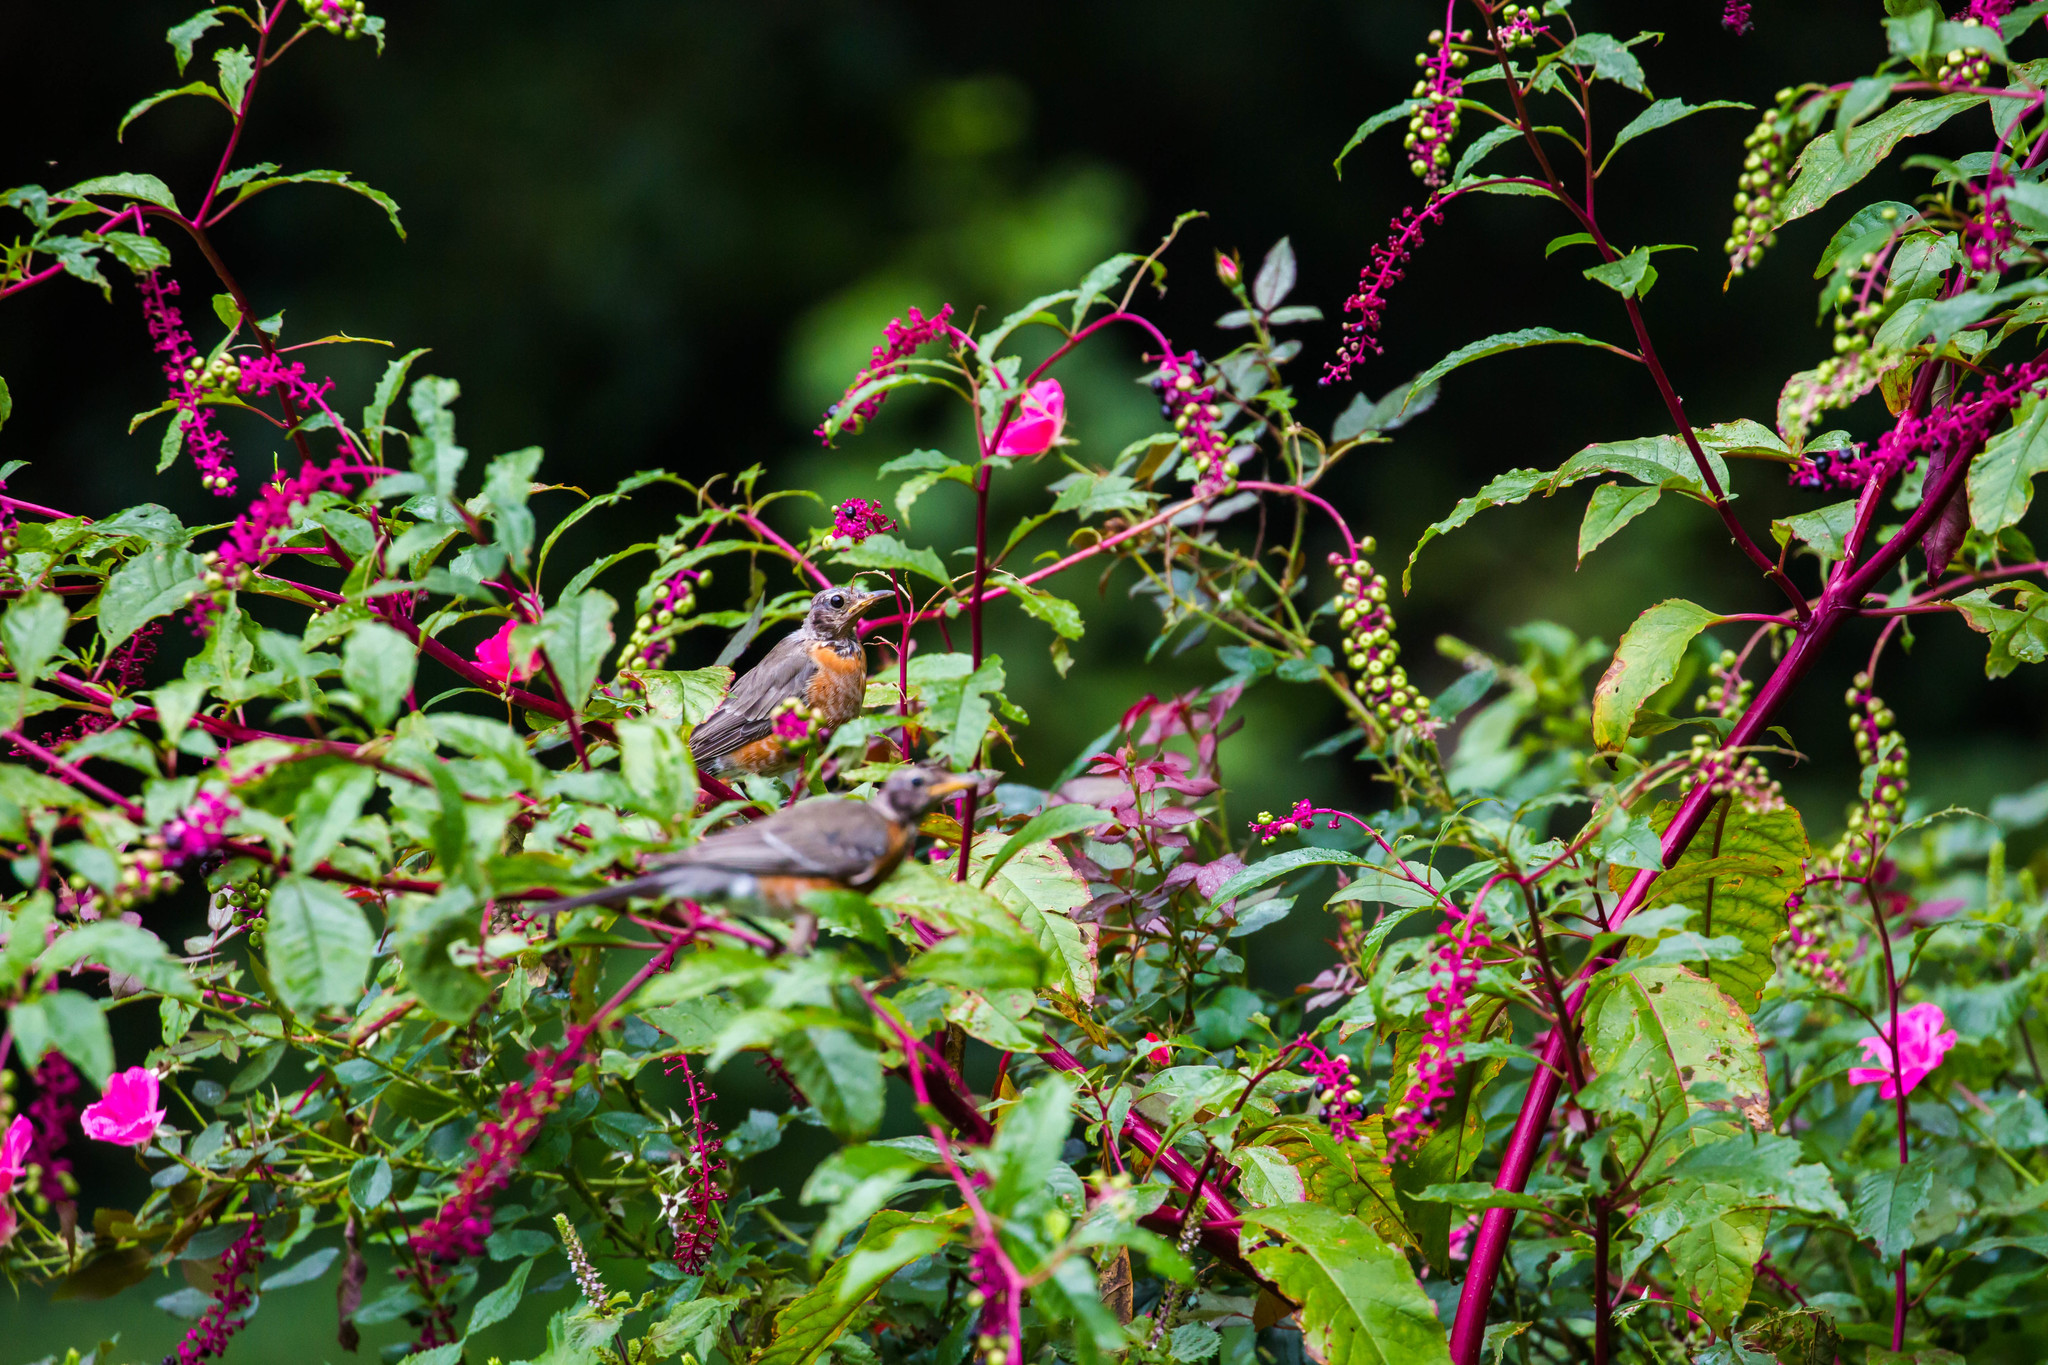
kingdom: Animalia
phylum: Chordata
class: Aves
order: Passeriformes
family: Turdidae
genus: Turdus
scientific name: Turdus migratorius
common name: American robin
